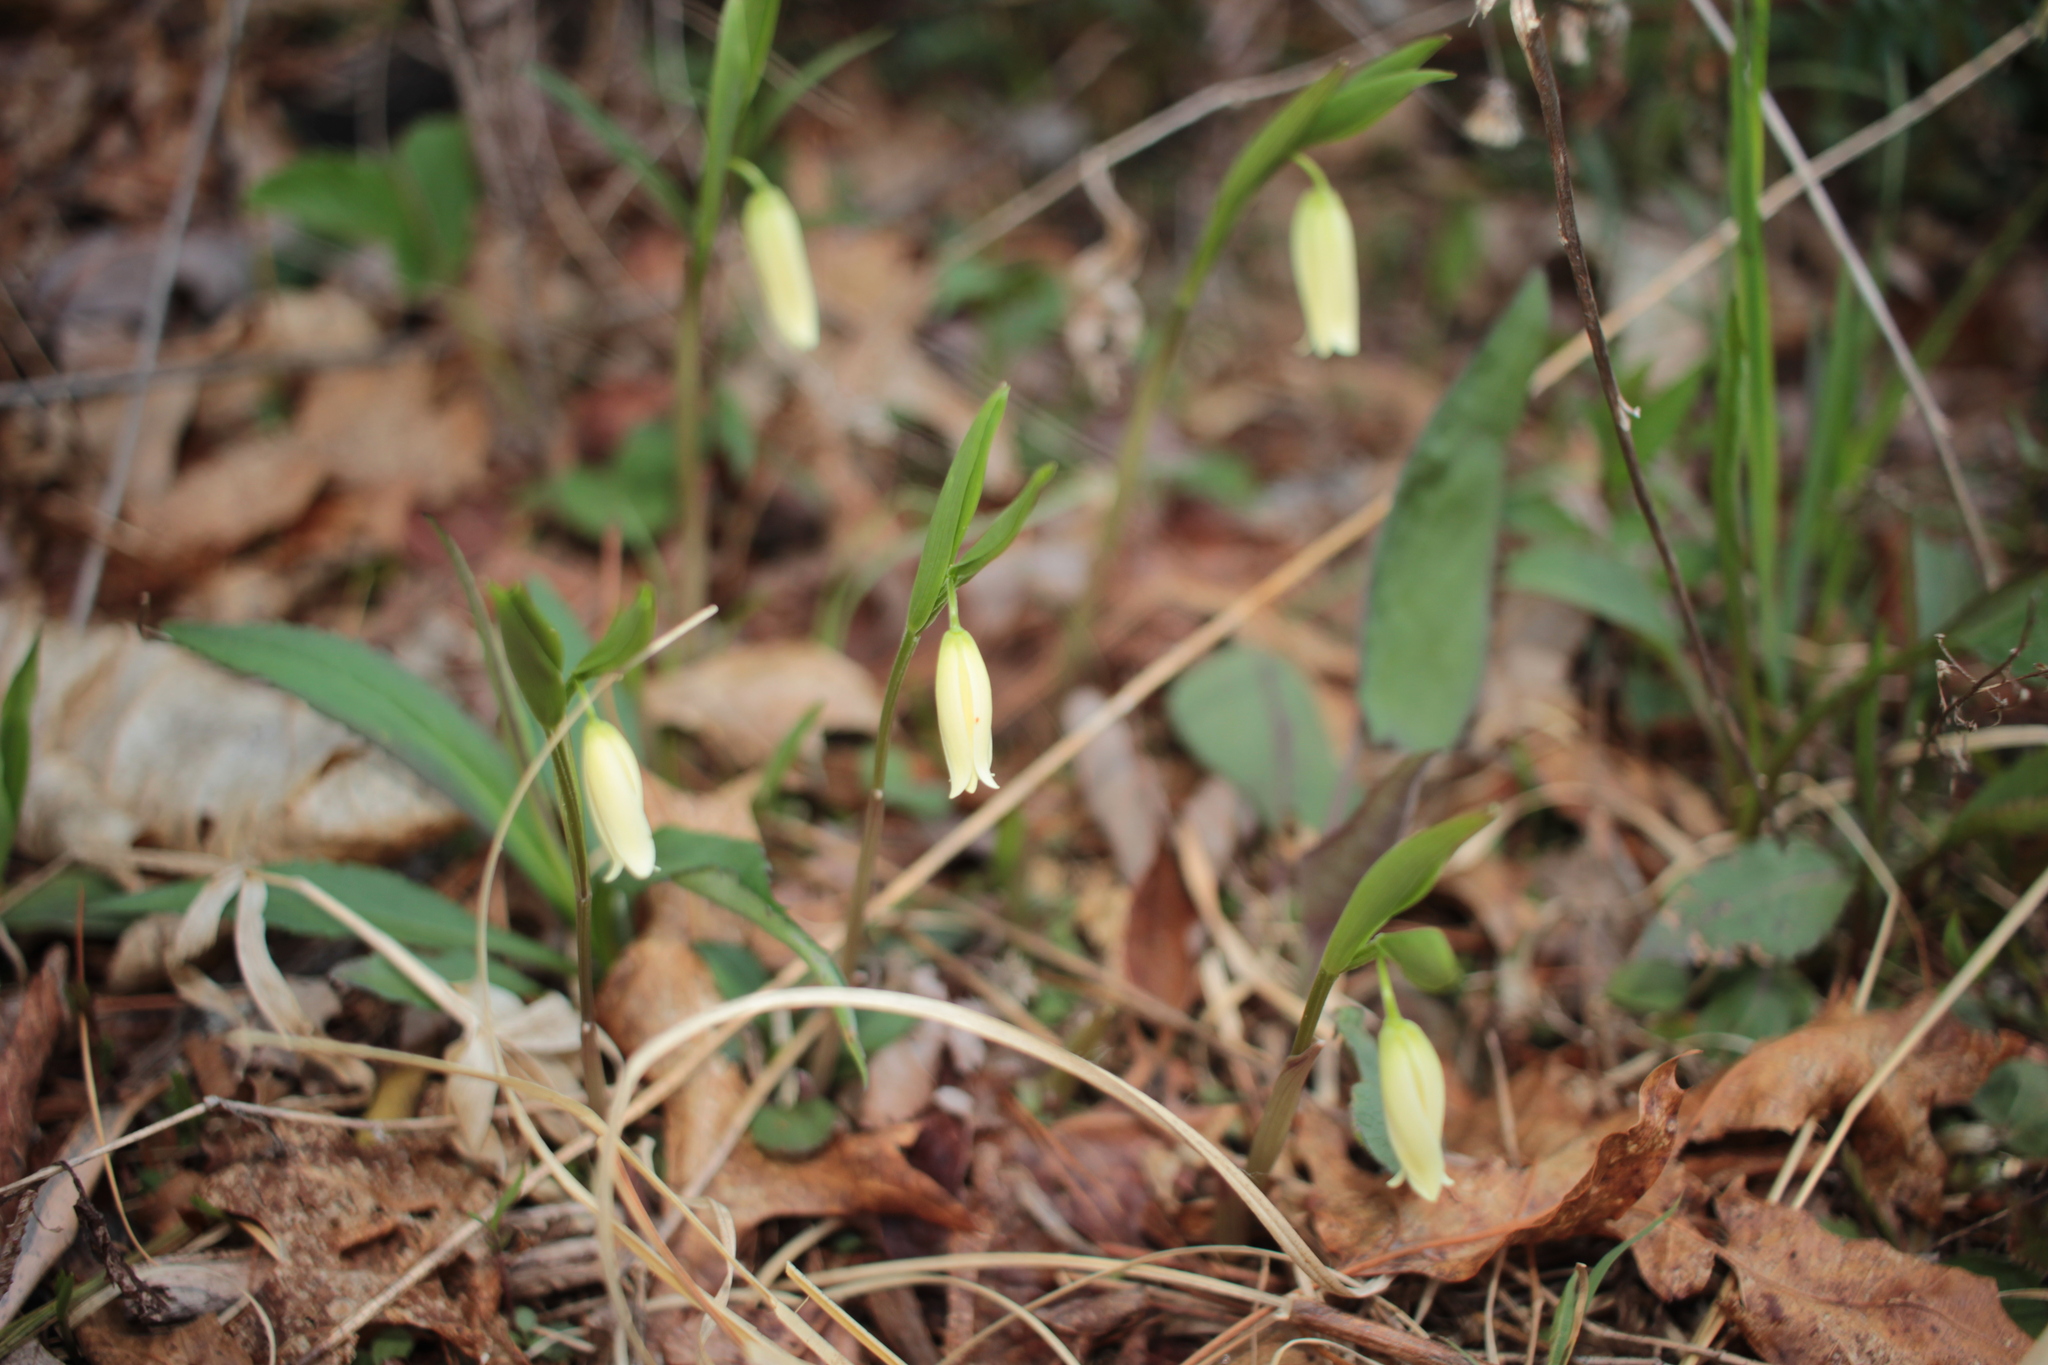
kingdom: Plantae
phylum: Tracheophyta
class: Liliopsida
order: Liliales
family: Colchicaceae
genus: Uvularia
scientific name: Uvularia puberula
